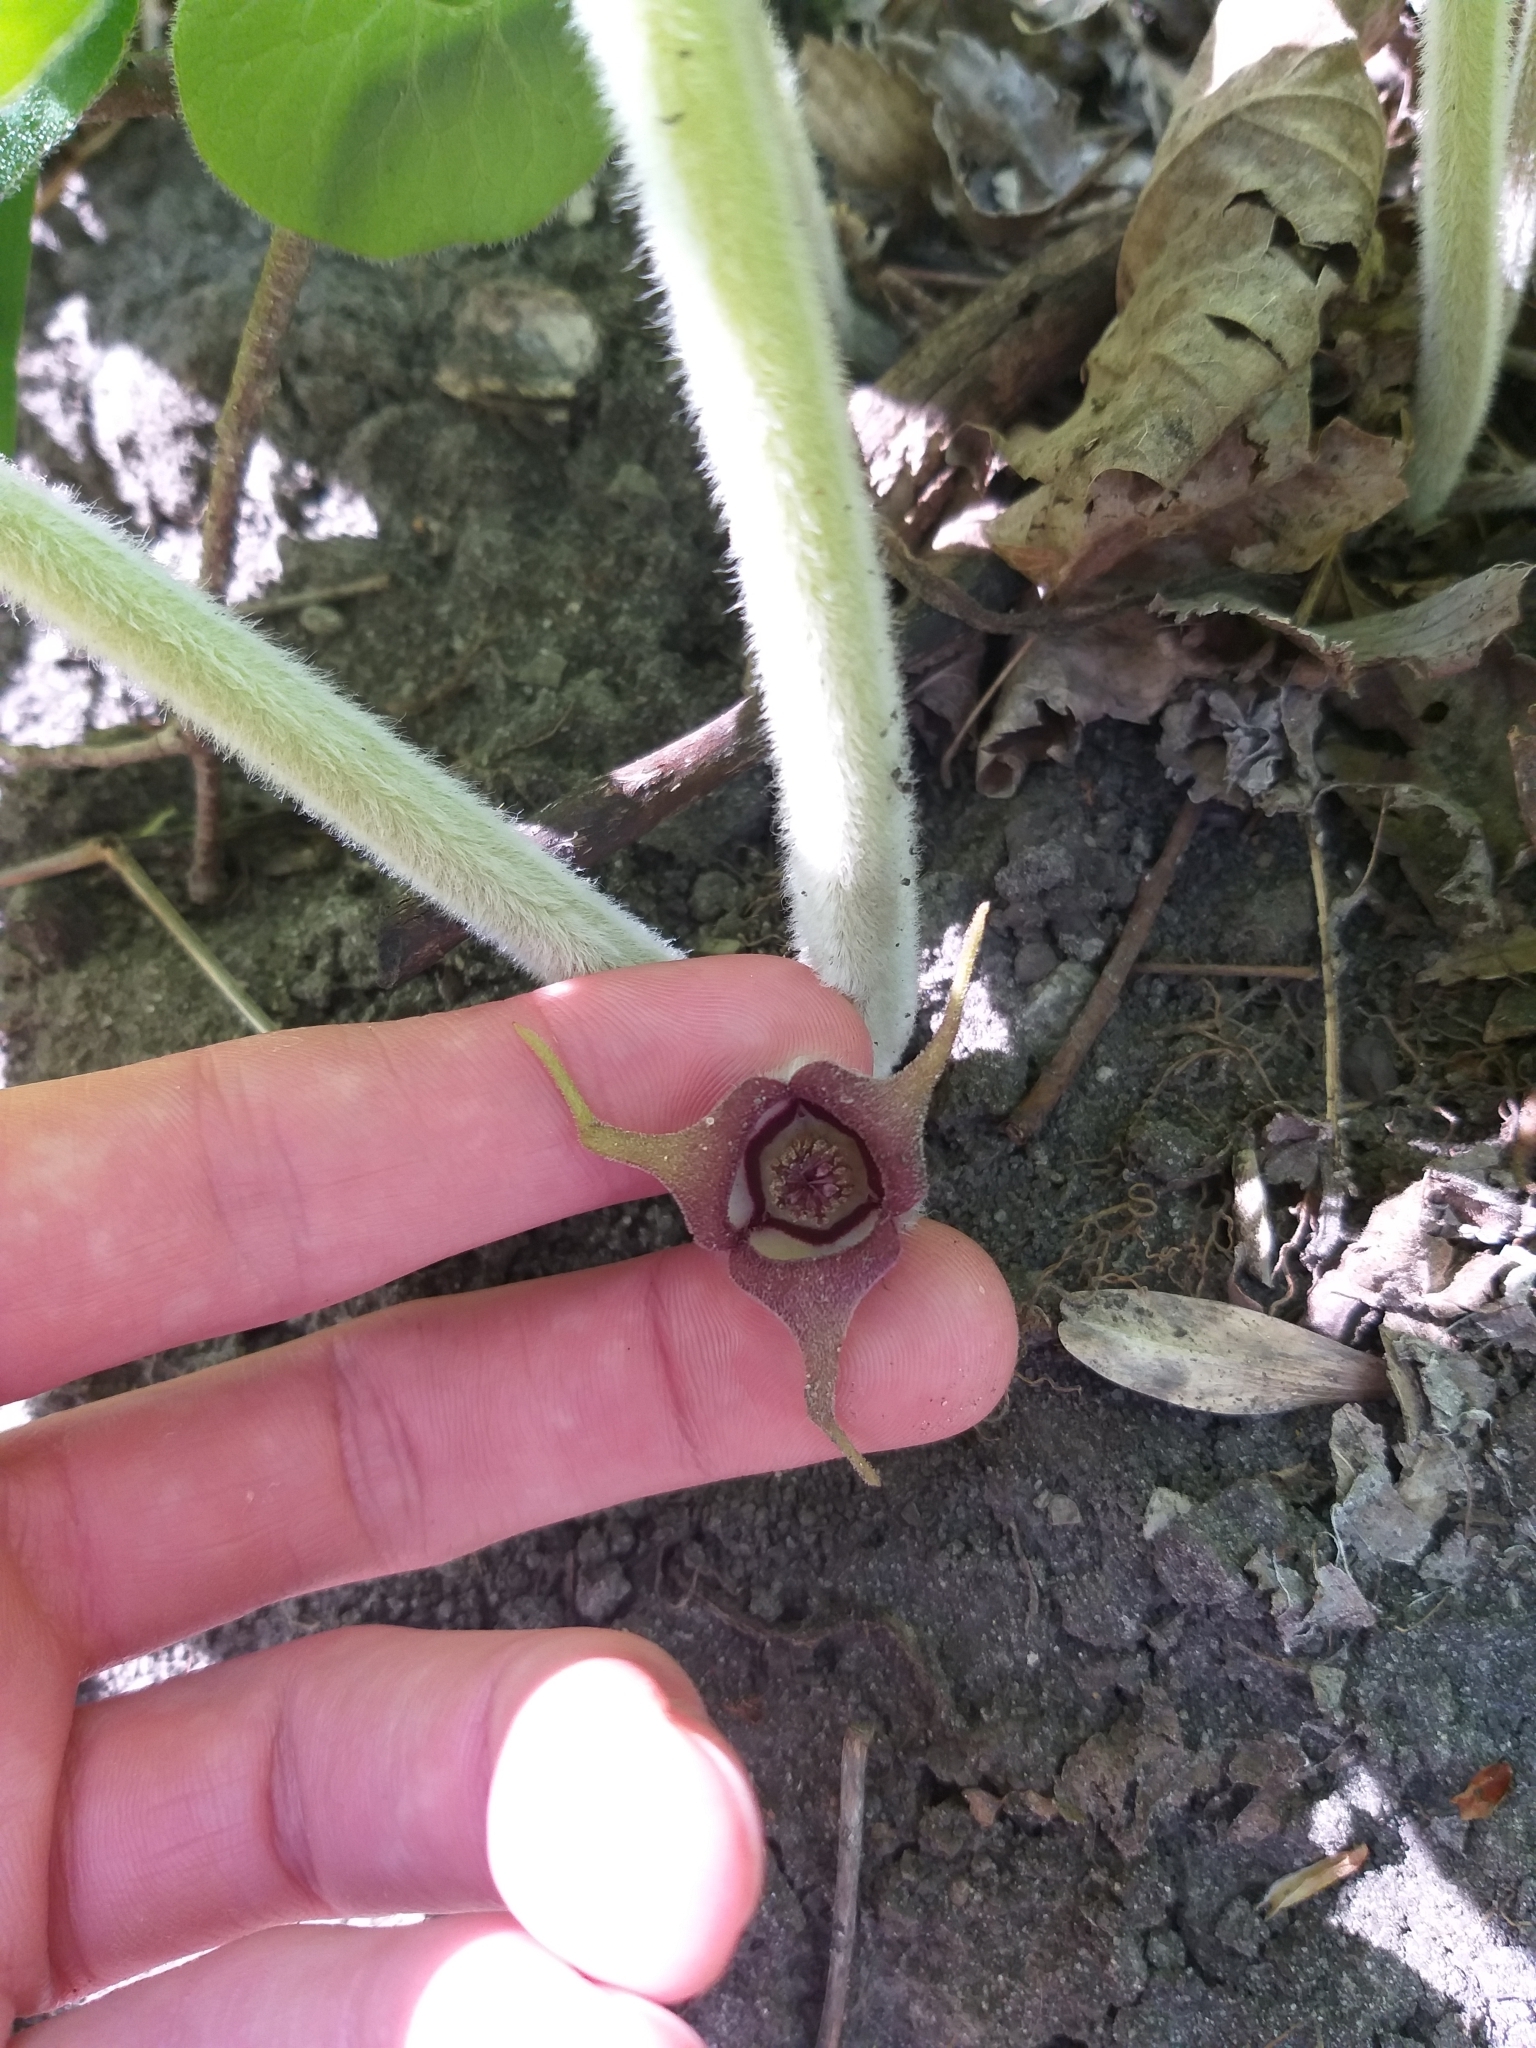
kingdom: Plantae
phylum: Tracheophyta
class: Magnoliopsida
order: Piperales
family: Aristolochiaceae
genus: Asarum
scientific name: Asarum canadense
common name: Wild ginger
